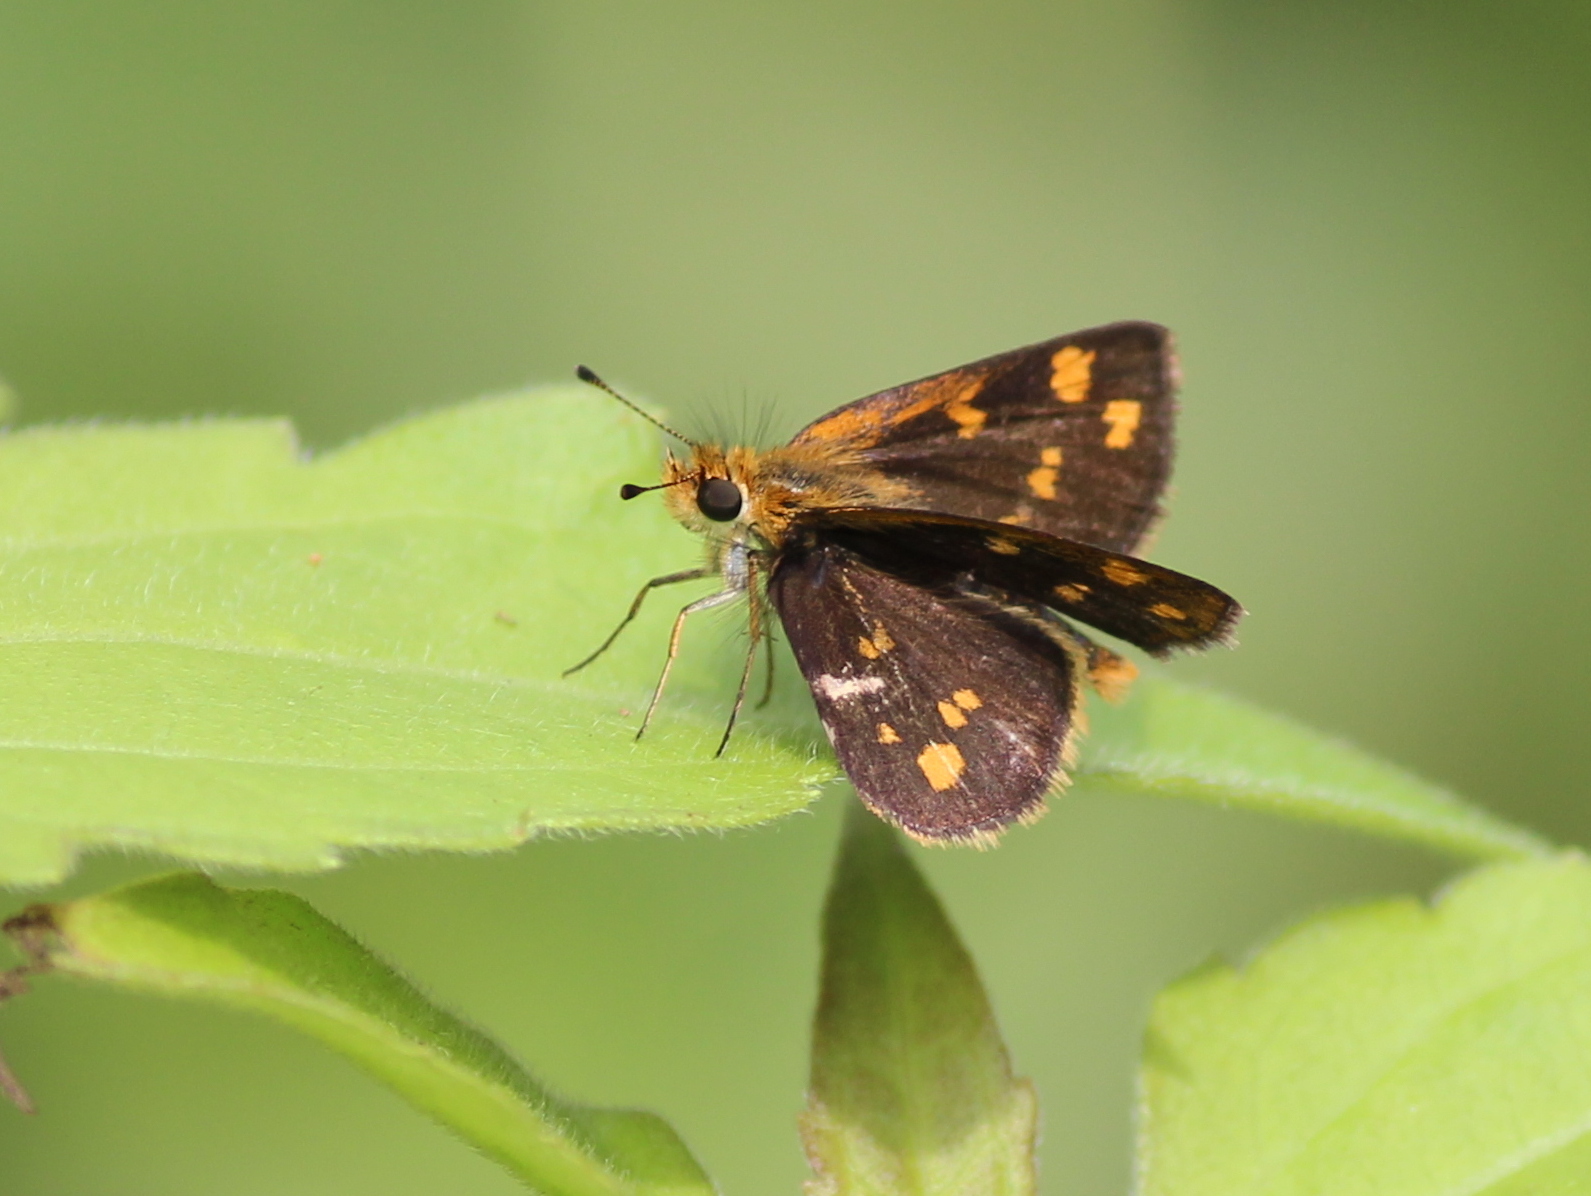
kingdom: Animalia
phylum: Arthropoda
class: Insecta
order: Lepidoptera
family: Hesperiidae
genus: Taractrocera
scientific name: Taractrocera ceramas
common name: Tamil grass dart
